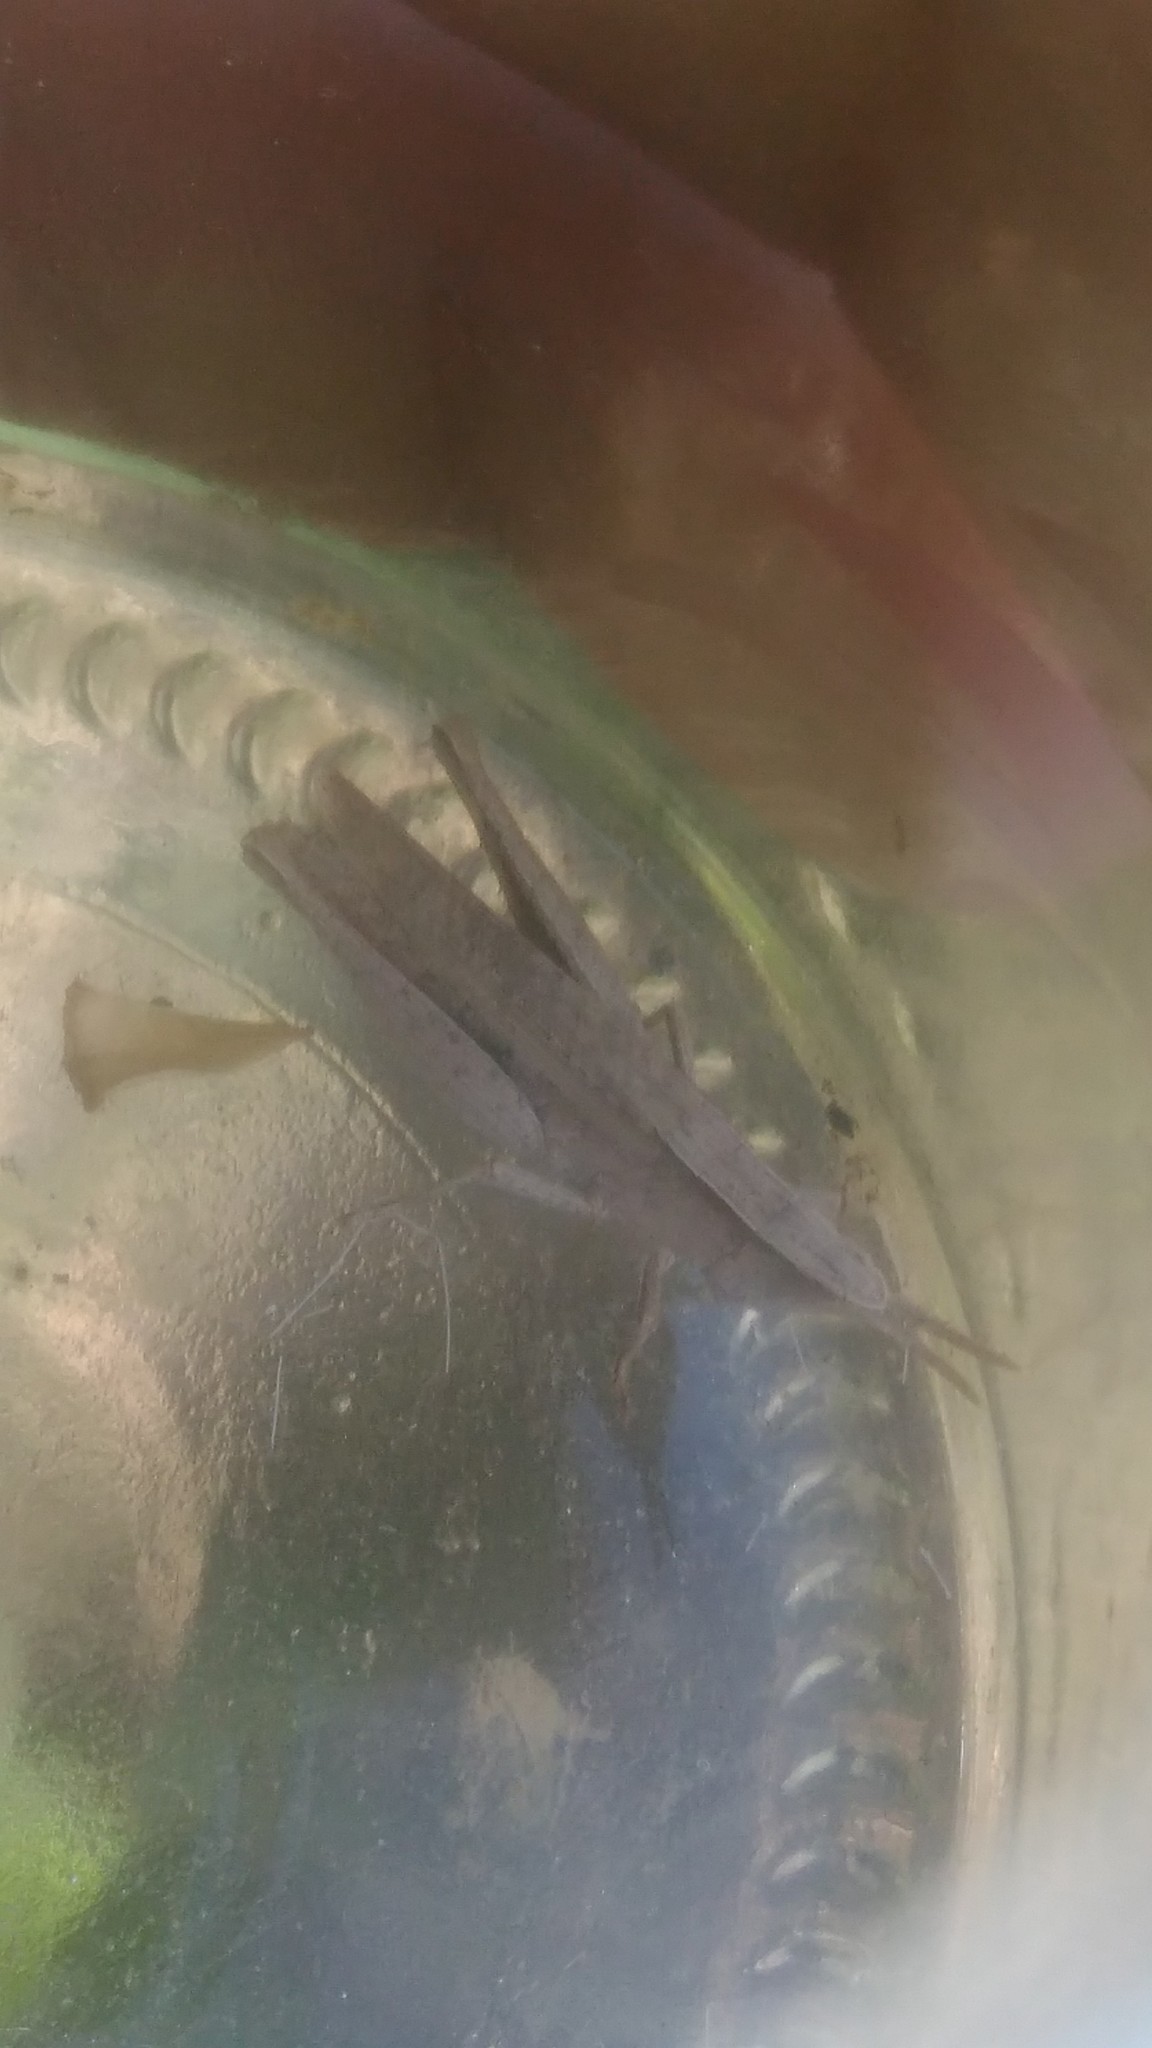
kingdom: Animalia
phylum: Arthropoda
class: Insecta
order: Orthoptera
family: Acrididae
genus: Laplatacris
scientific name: Laplatacris dispar
